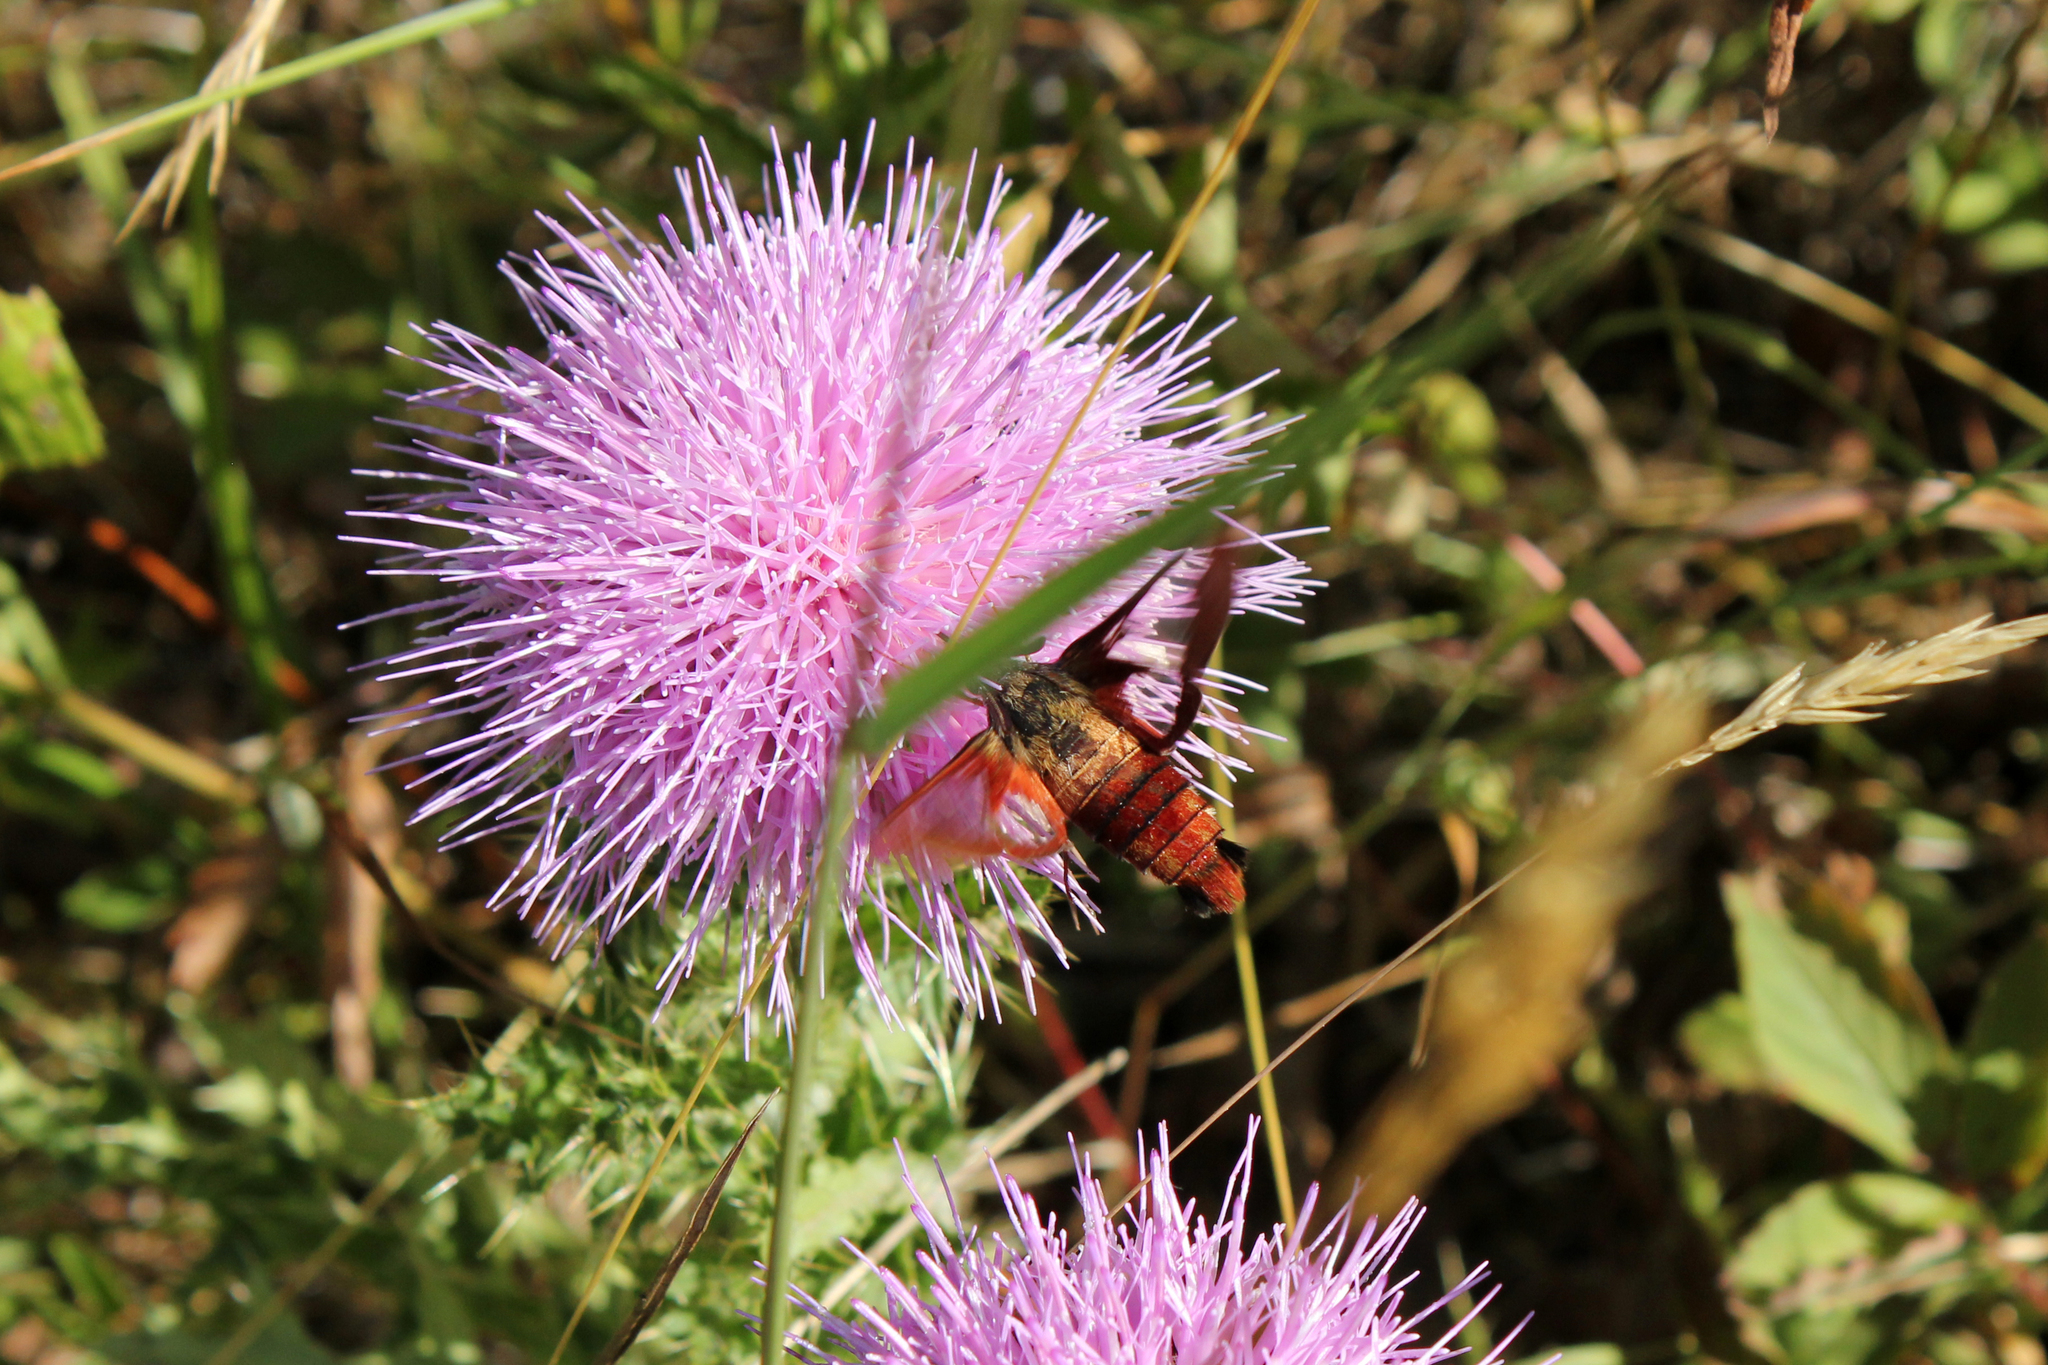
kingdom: Animalia
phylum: Arthropoda
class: Insecta
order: Lepidoptera
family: Sphingidae
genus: Hemaris
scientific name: Hemaris thysbe
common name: Common clear-wing
